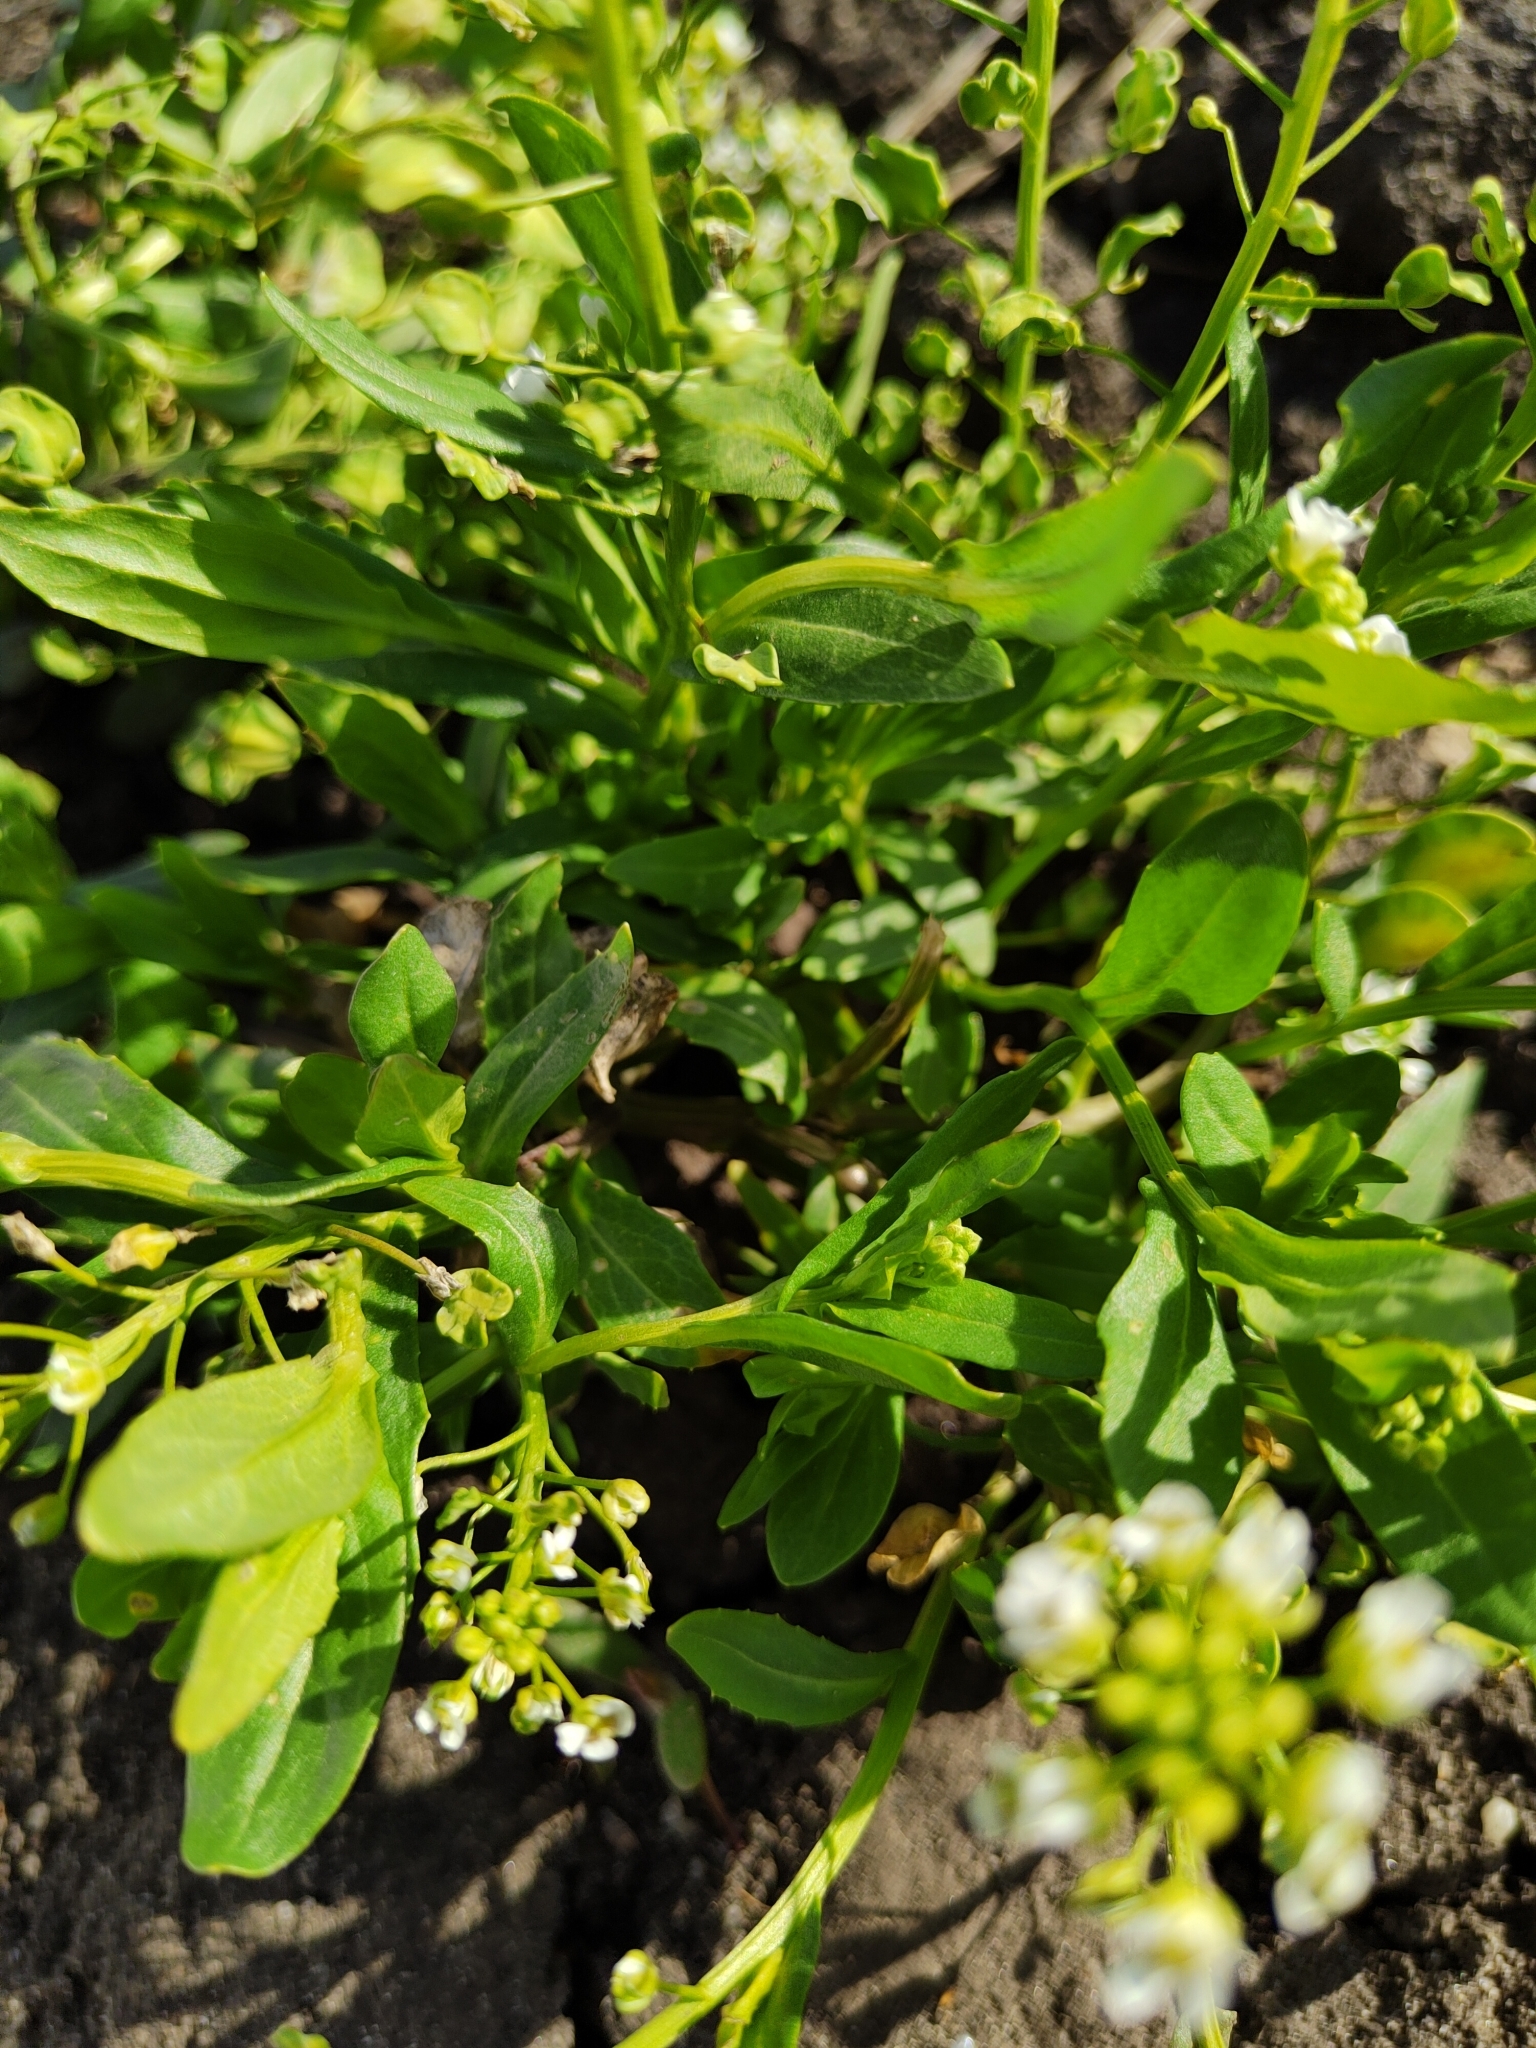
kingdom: Plantae
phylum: Tracheophyta
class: Magnoliopsida
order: Brassicales
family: Brassicaceae
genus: Thlaspi
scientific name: Thlaspi arvense
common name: Field pennycress
